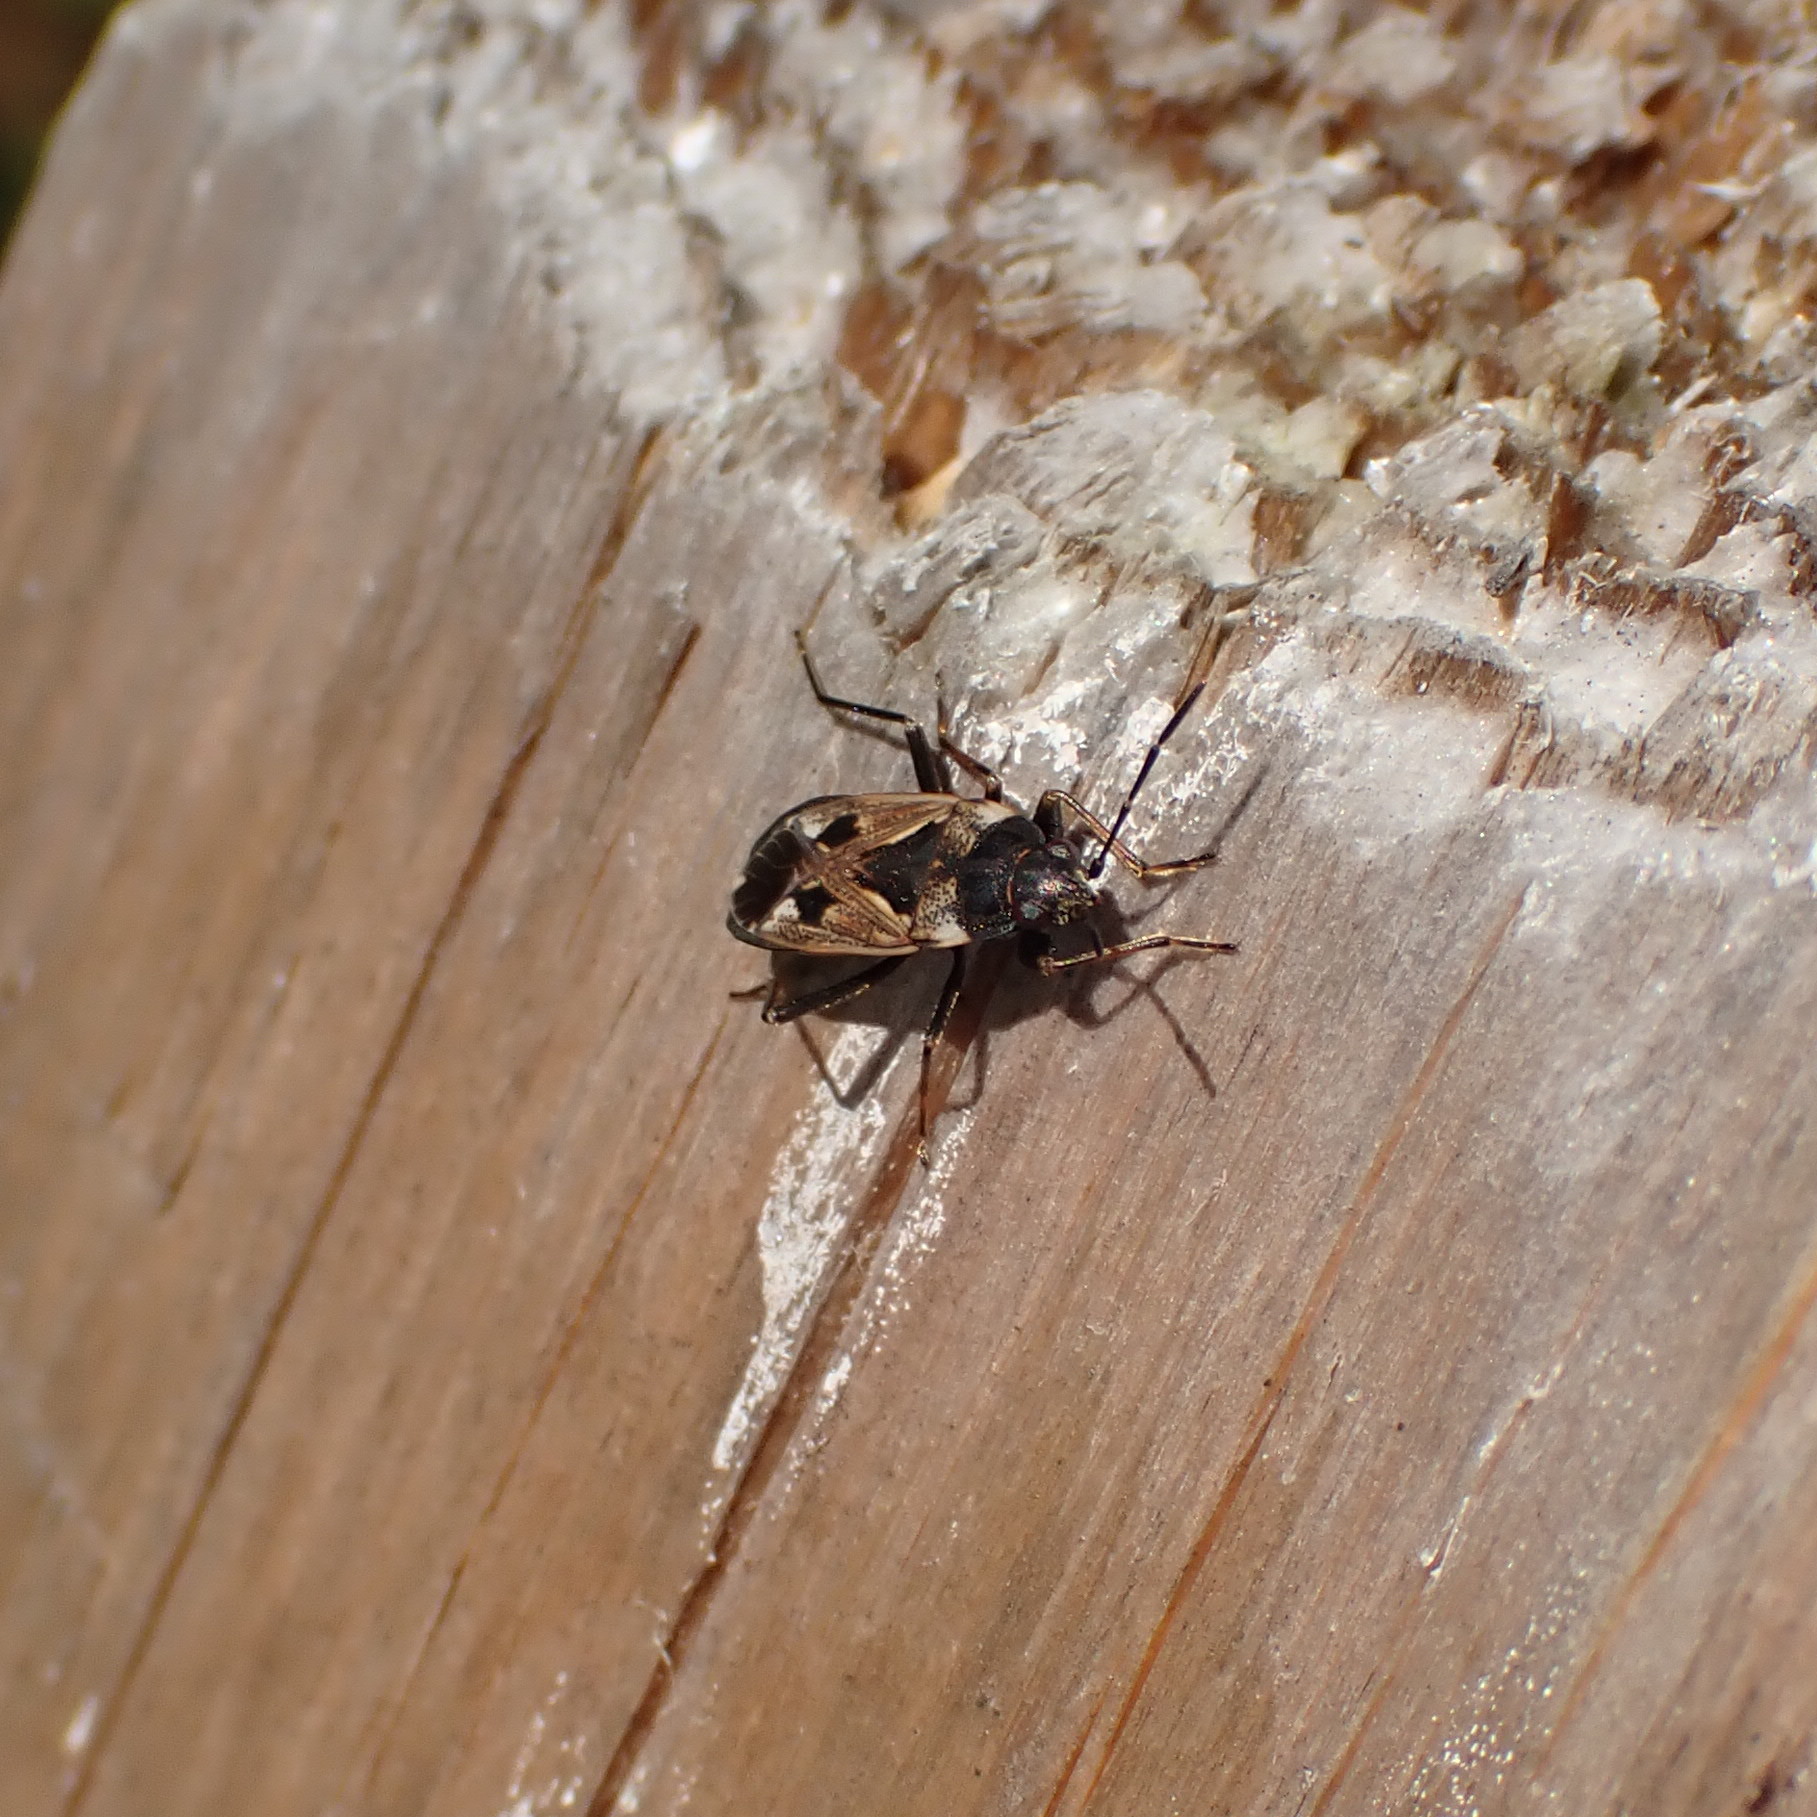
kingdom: Animalia
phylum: Arthropoda
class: Insecta
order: Hemiptera
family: Rhyparochromidae
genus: Rhyparochromus
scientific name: Rhyparochromus vulgaris
